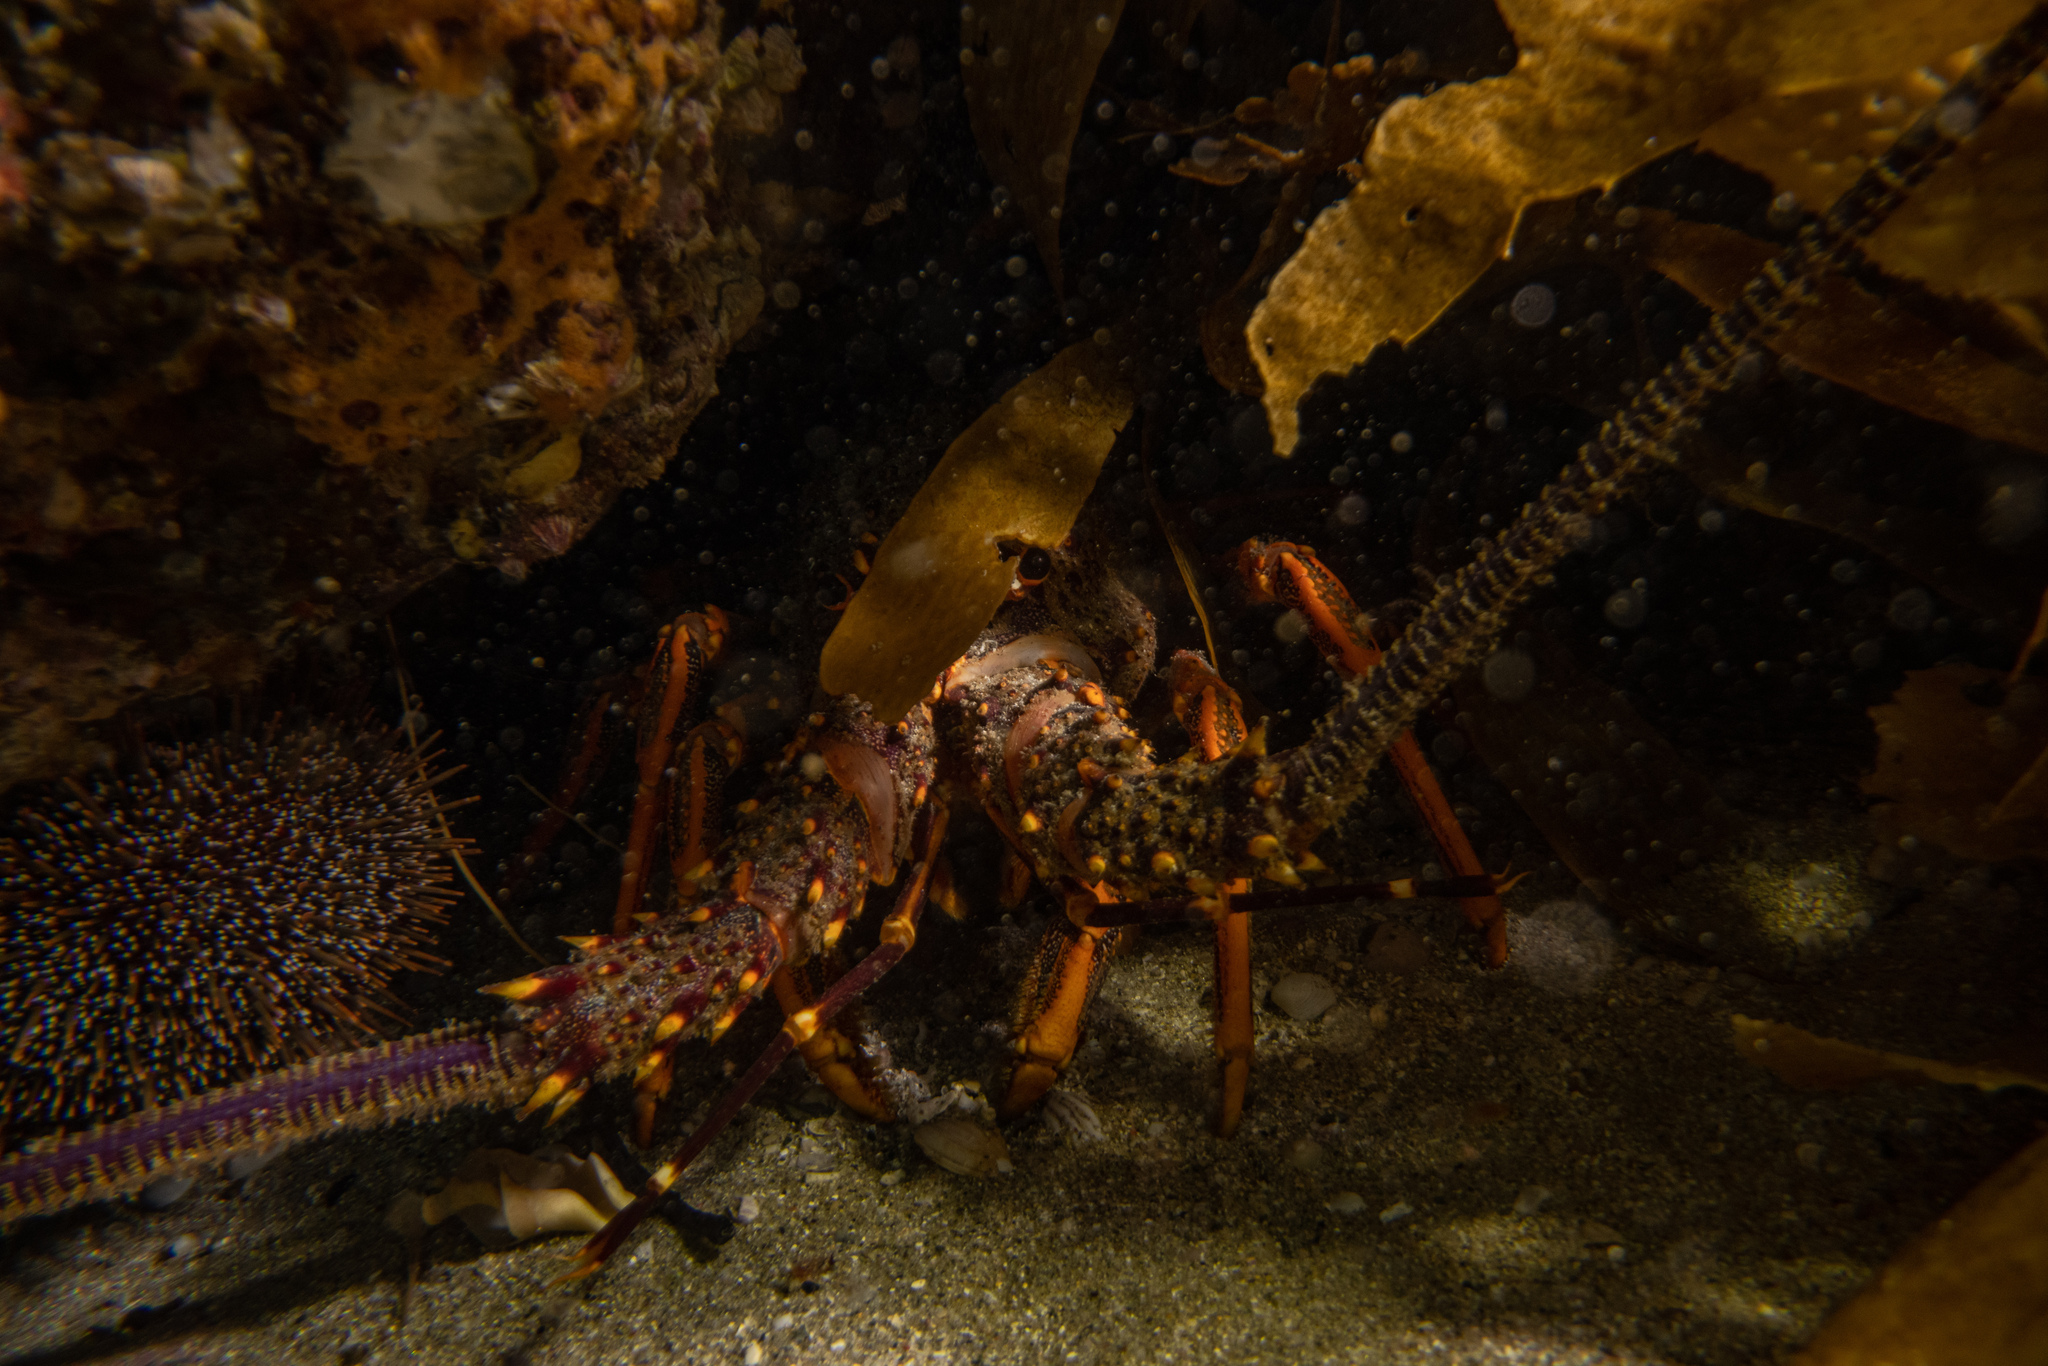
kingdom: Animalia
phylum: Arthropoda
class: Malacostraca
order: Decapoda
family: Palinuridae
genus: Jasus
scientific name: Jasus edwardsii
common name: Red rock lobster
